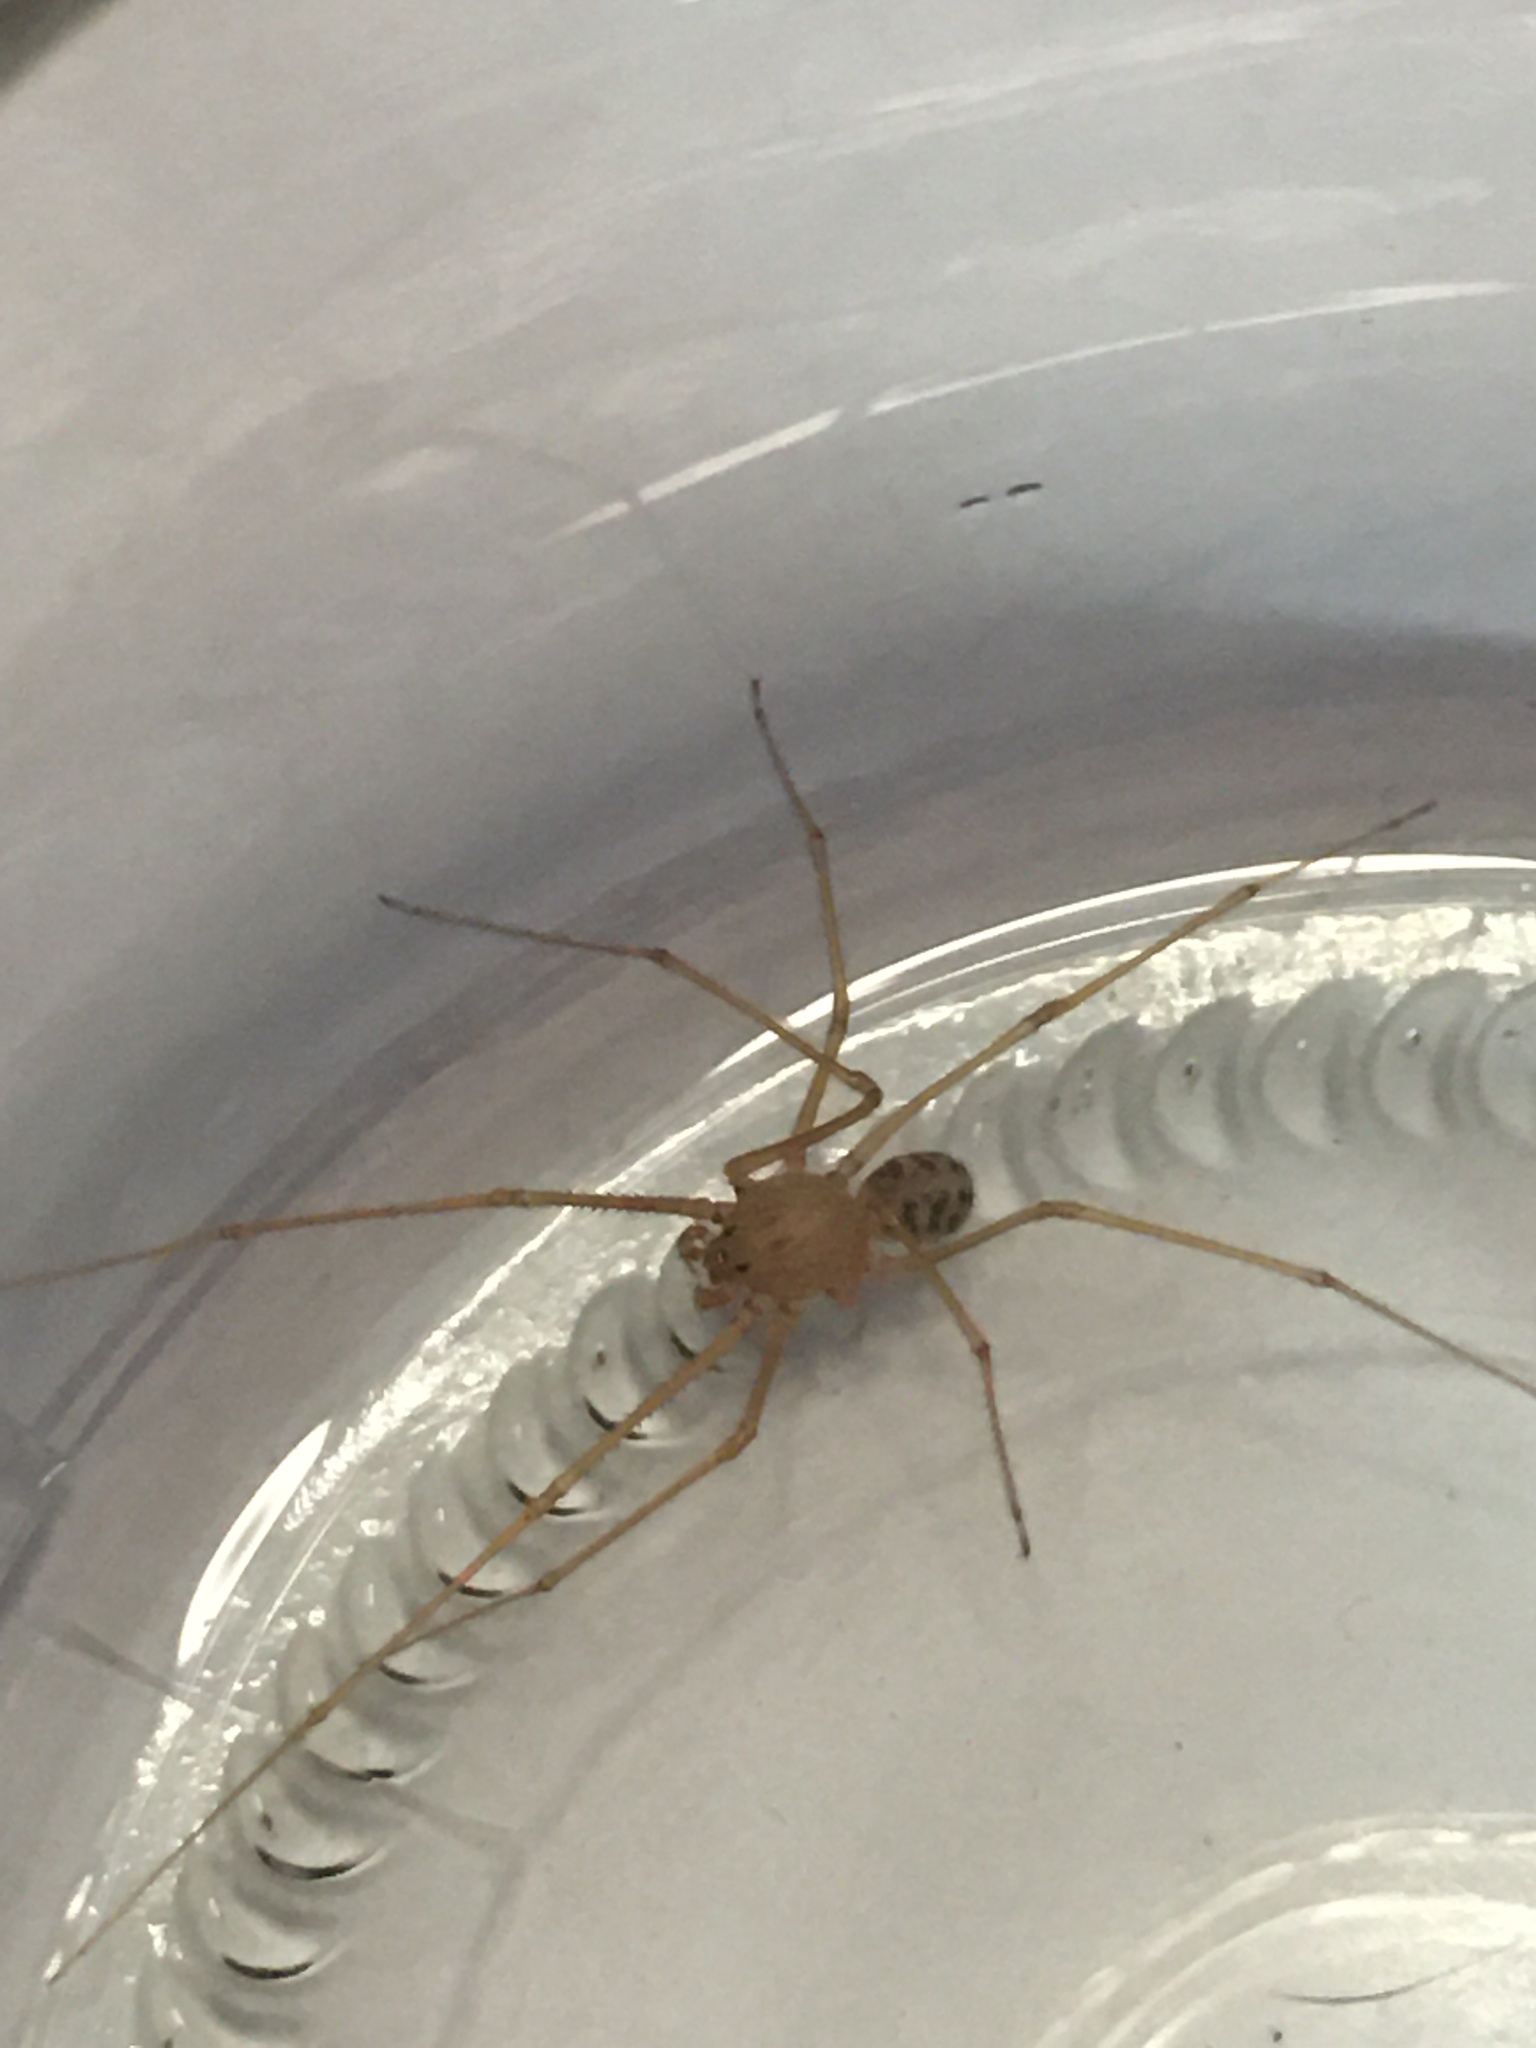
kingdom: Animalia
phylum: Arthropoda
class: Arachnida
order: Araneae
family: Scytodidae
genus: Scytodes
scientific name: Scytodes univittata
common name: Spitting spider
